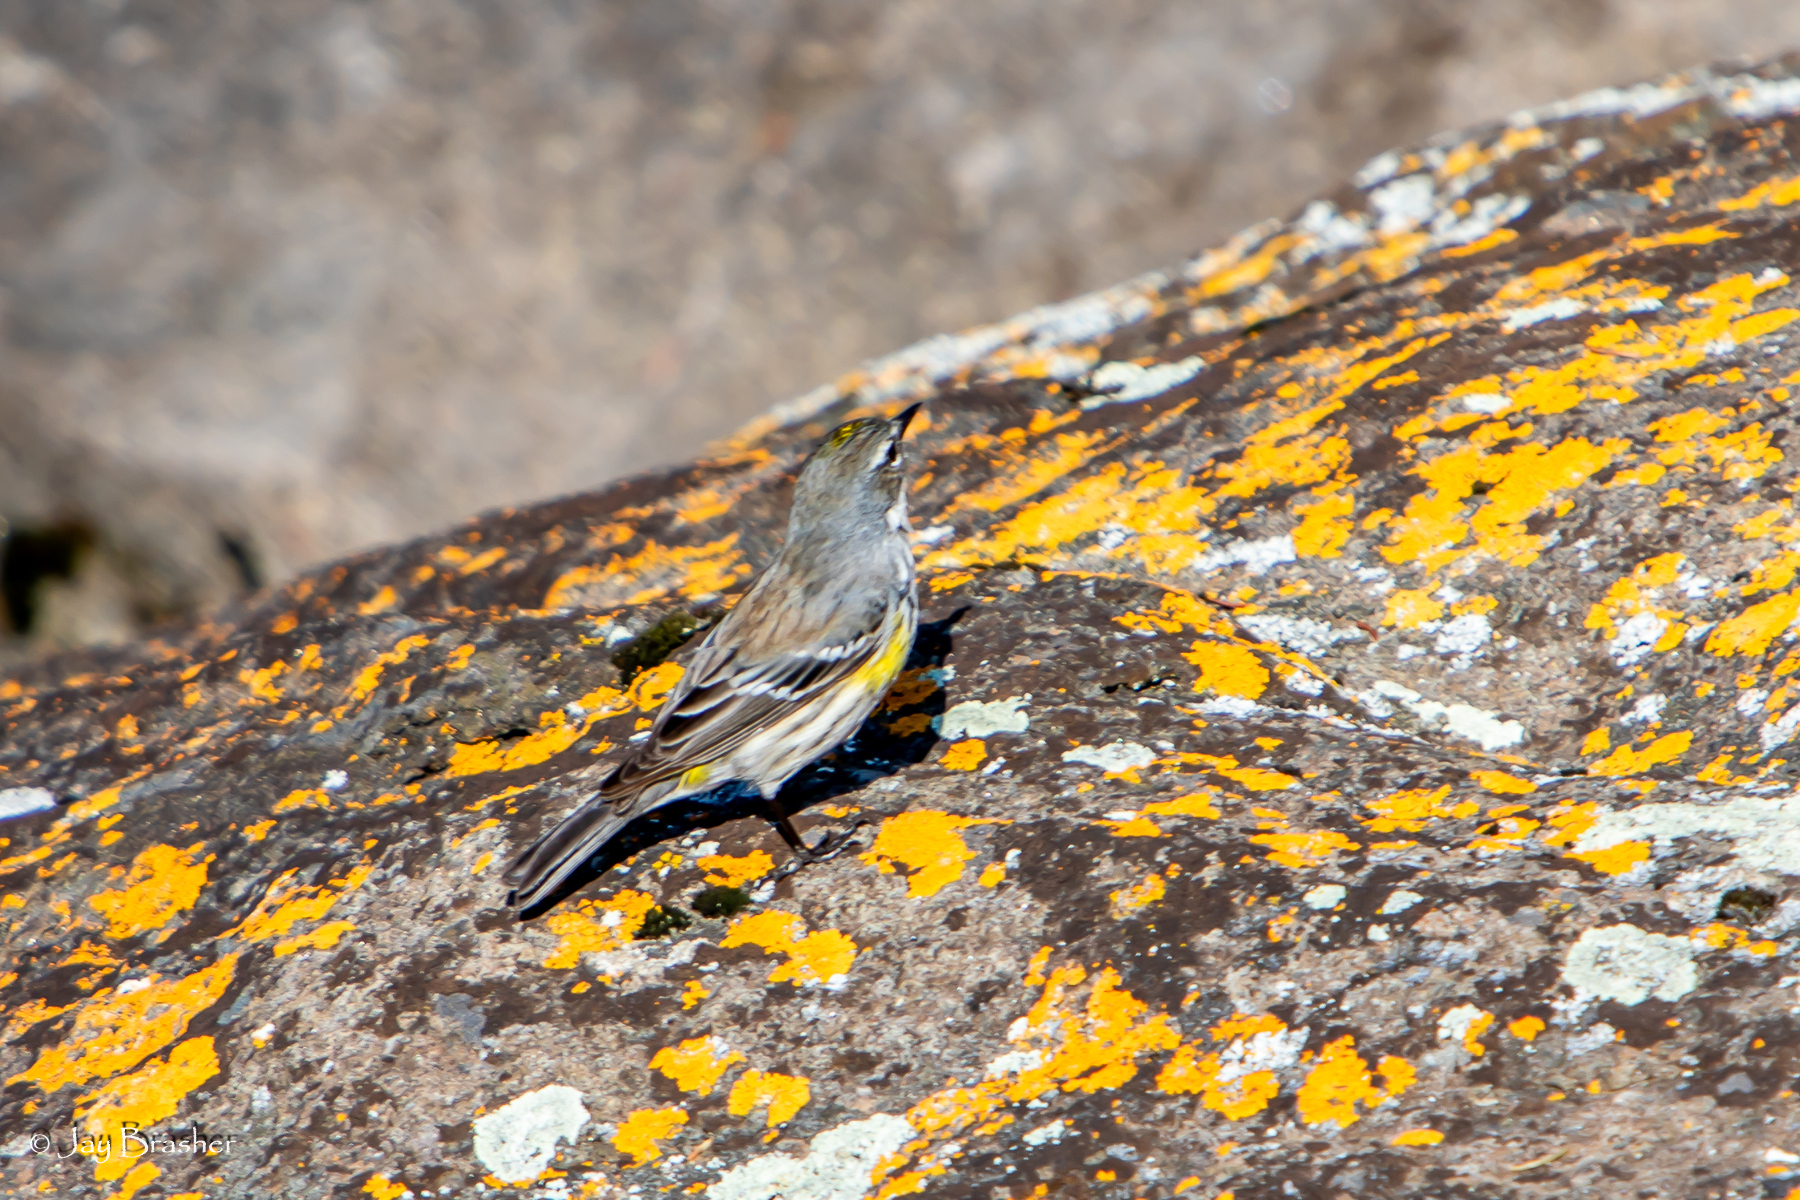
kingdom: Animalia
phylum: Chordata
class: Aves
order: Passeriformes
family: Parulidae
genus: Setophaga
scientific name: Setophaga coronata
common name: Myrtle warbler
